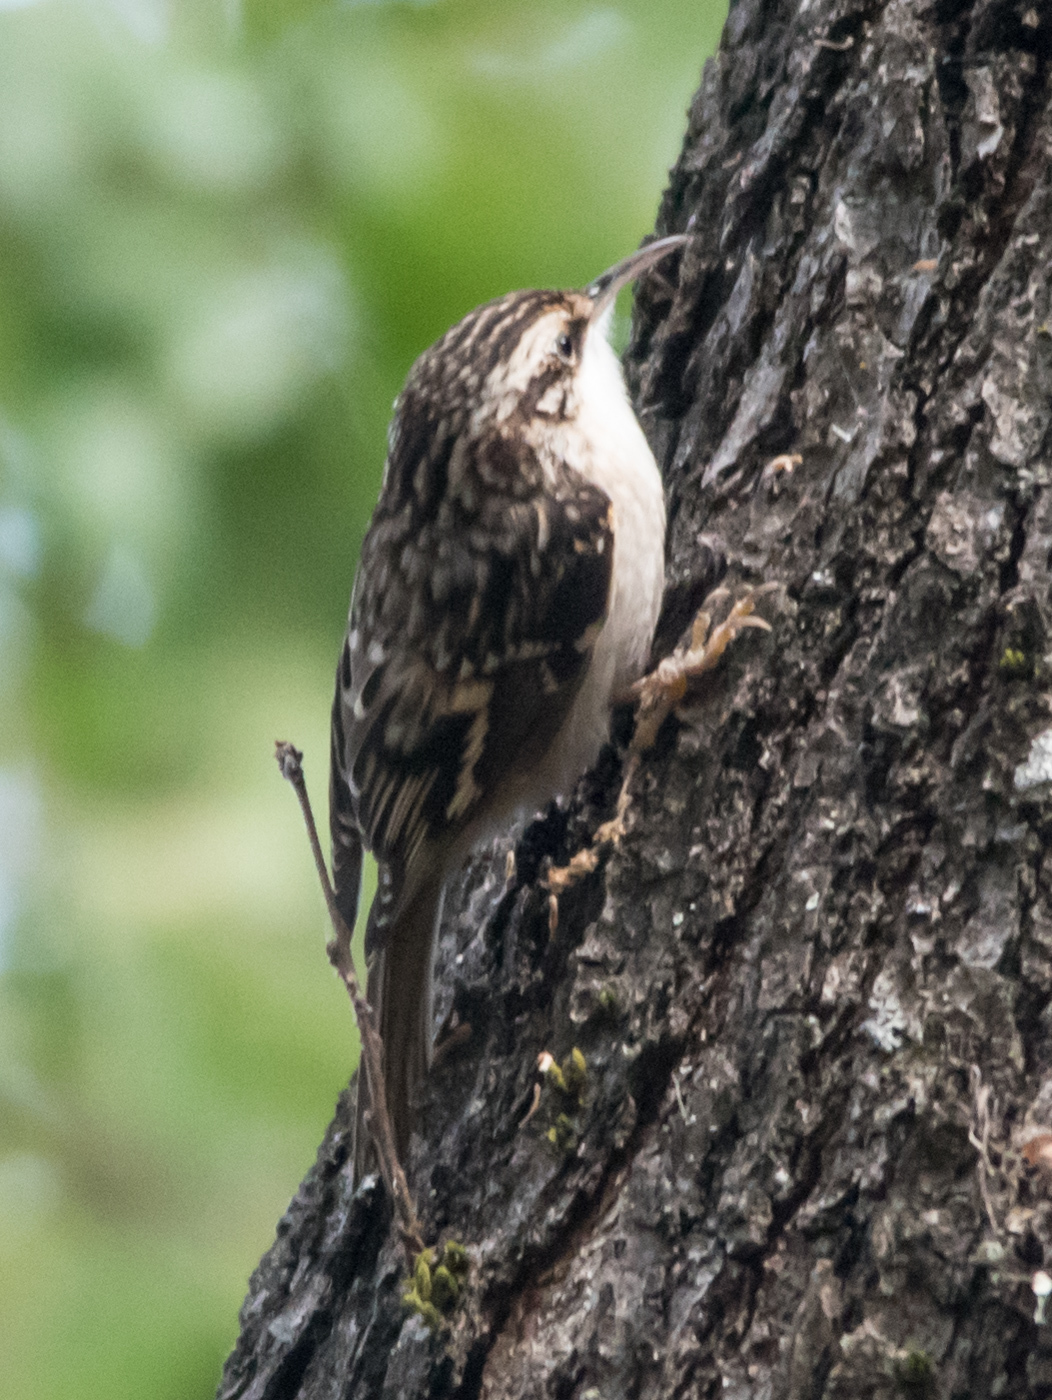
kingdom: Animalia
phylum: Chordata
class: Aves
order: Passeriformes
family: Certhiidae
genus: Certhia
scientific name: Certhia americana
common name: Brown creeper
